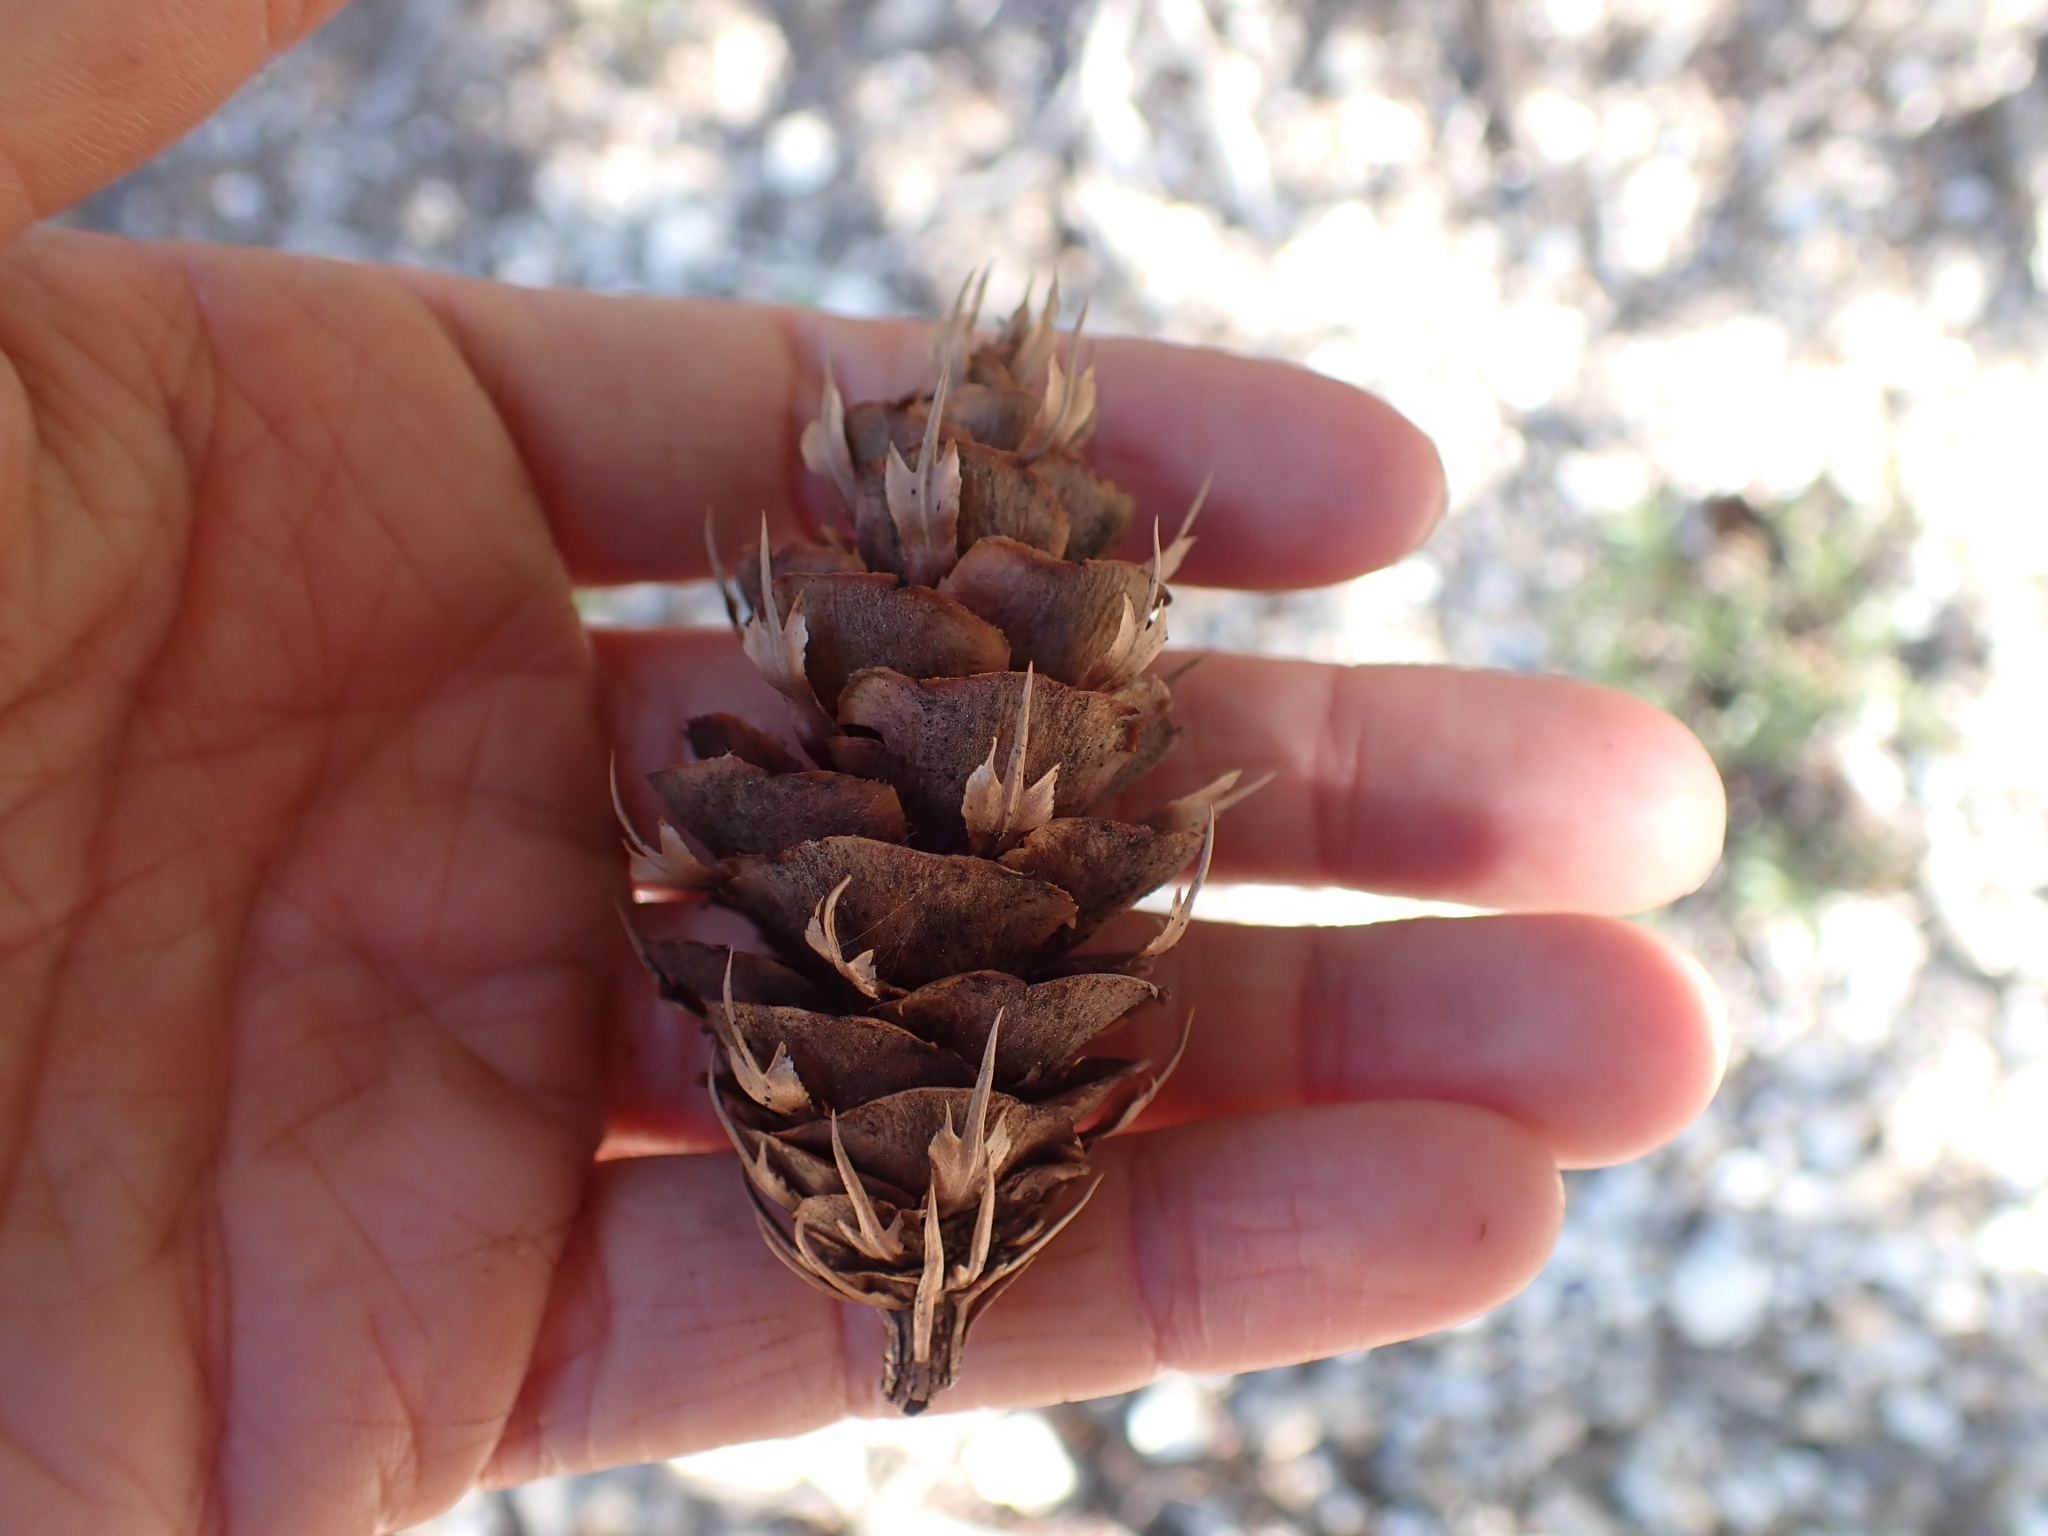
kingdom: Plantae
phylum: Tracheophyta
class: Pinopsida
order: Pinales
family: Pinaceae
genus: Pseudotsuga
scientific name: Pseudotsuga menziesii
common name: Douglas fir
